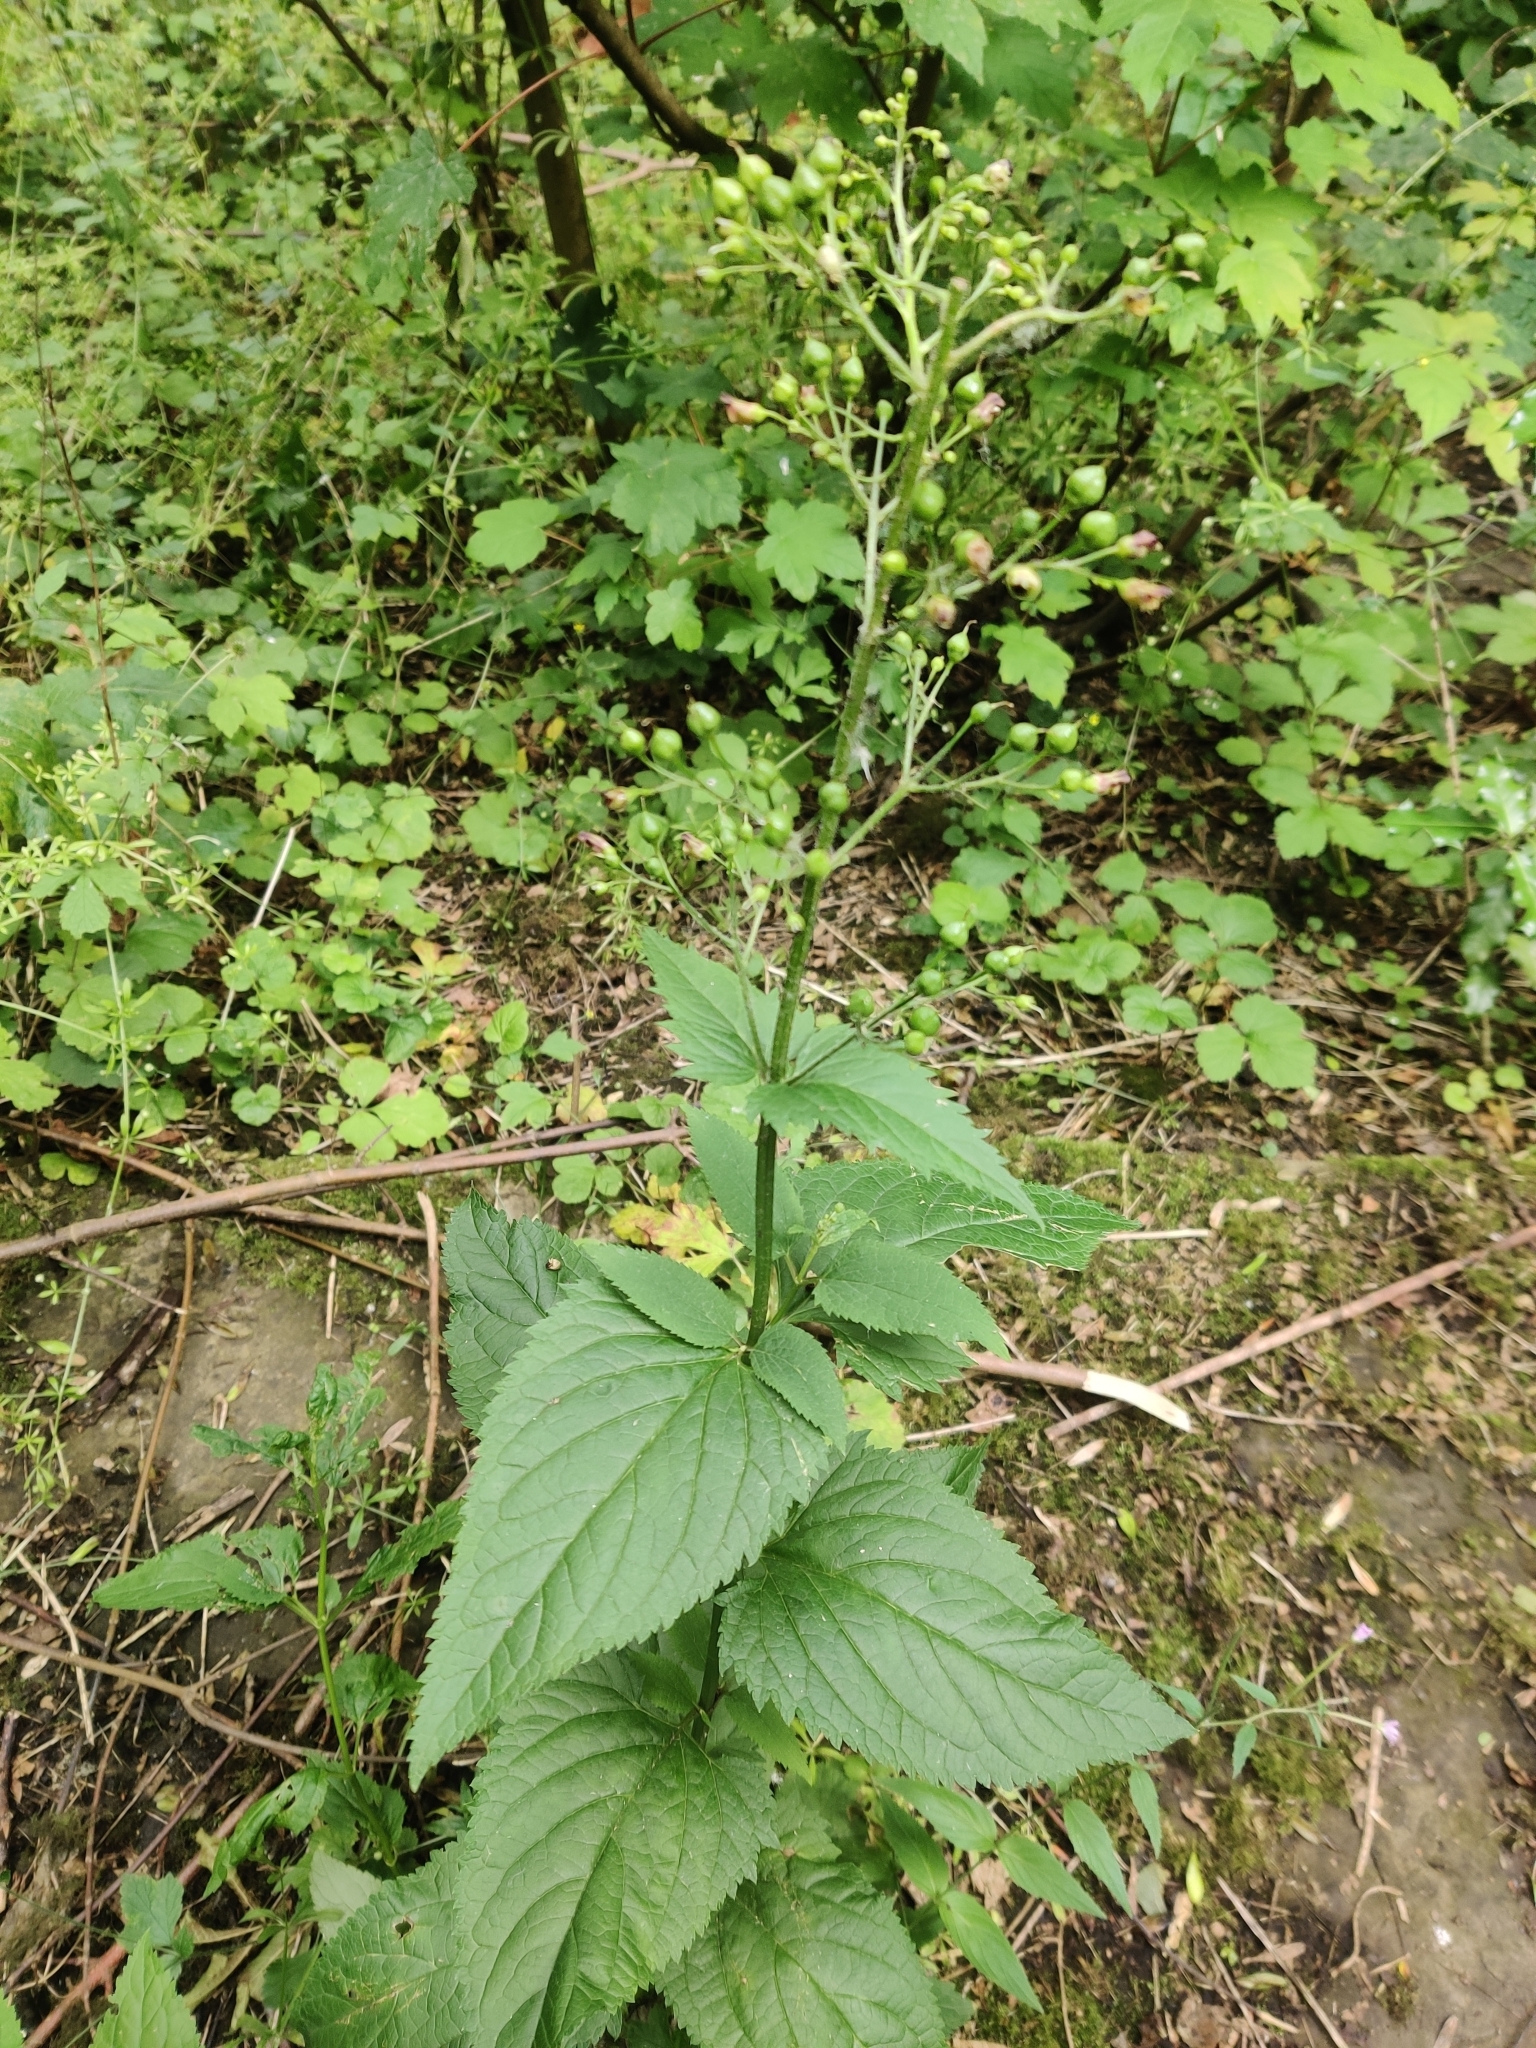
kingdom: Plantae
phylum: Tracheophyta
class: Magnoliopsida
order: Lamiales
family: Scrophulariaceae
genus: Scrophularia
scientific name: Scrophularia nodosa
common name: Common figwort
